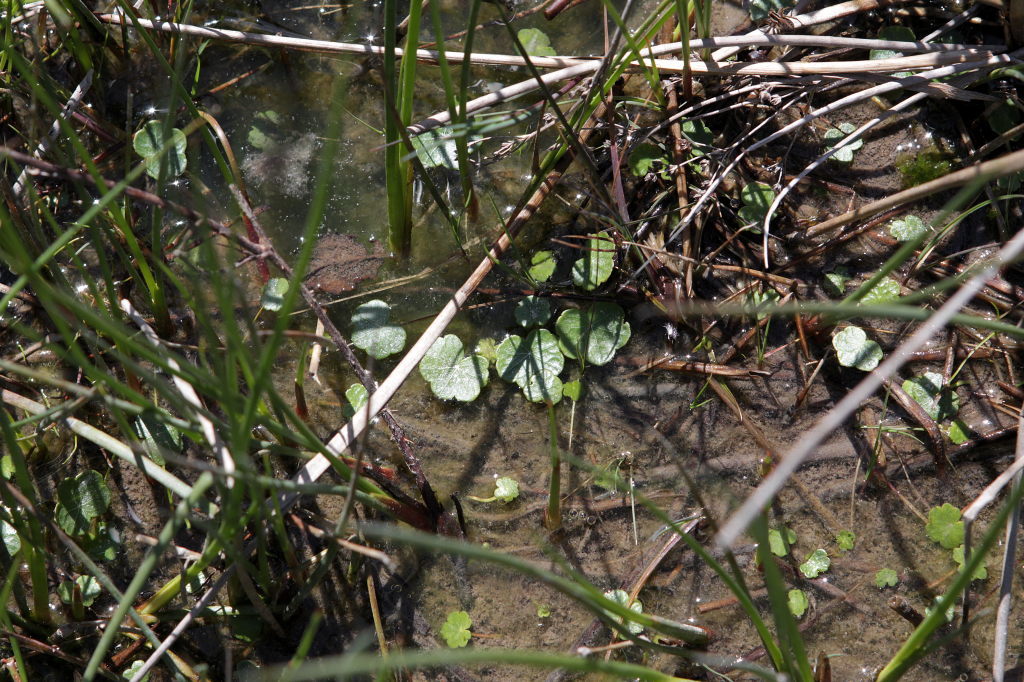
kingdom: Plantae
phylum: Tracheophyta
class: Magnoliopsida
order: Apiales
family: Araliaceae
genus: Hydrocotyle
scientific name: Hydrocotyle vulgaris
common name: Marsh pennywort
